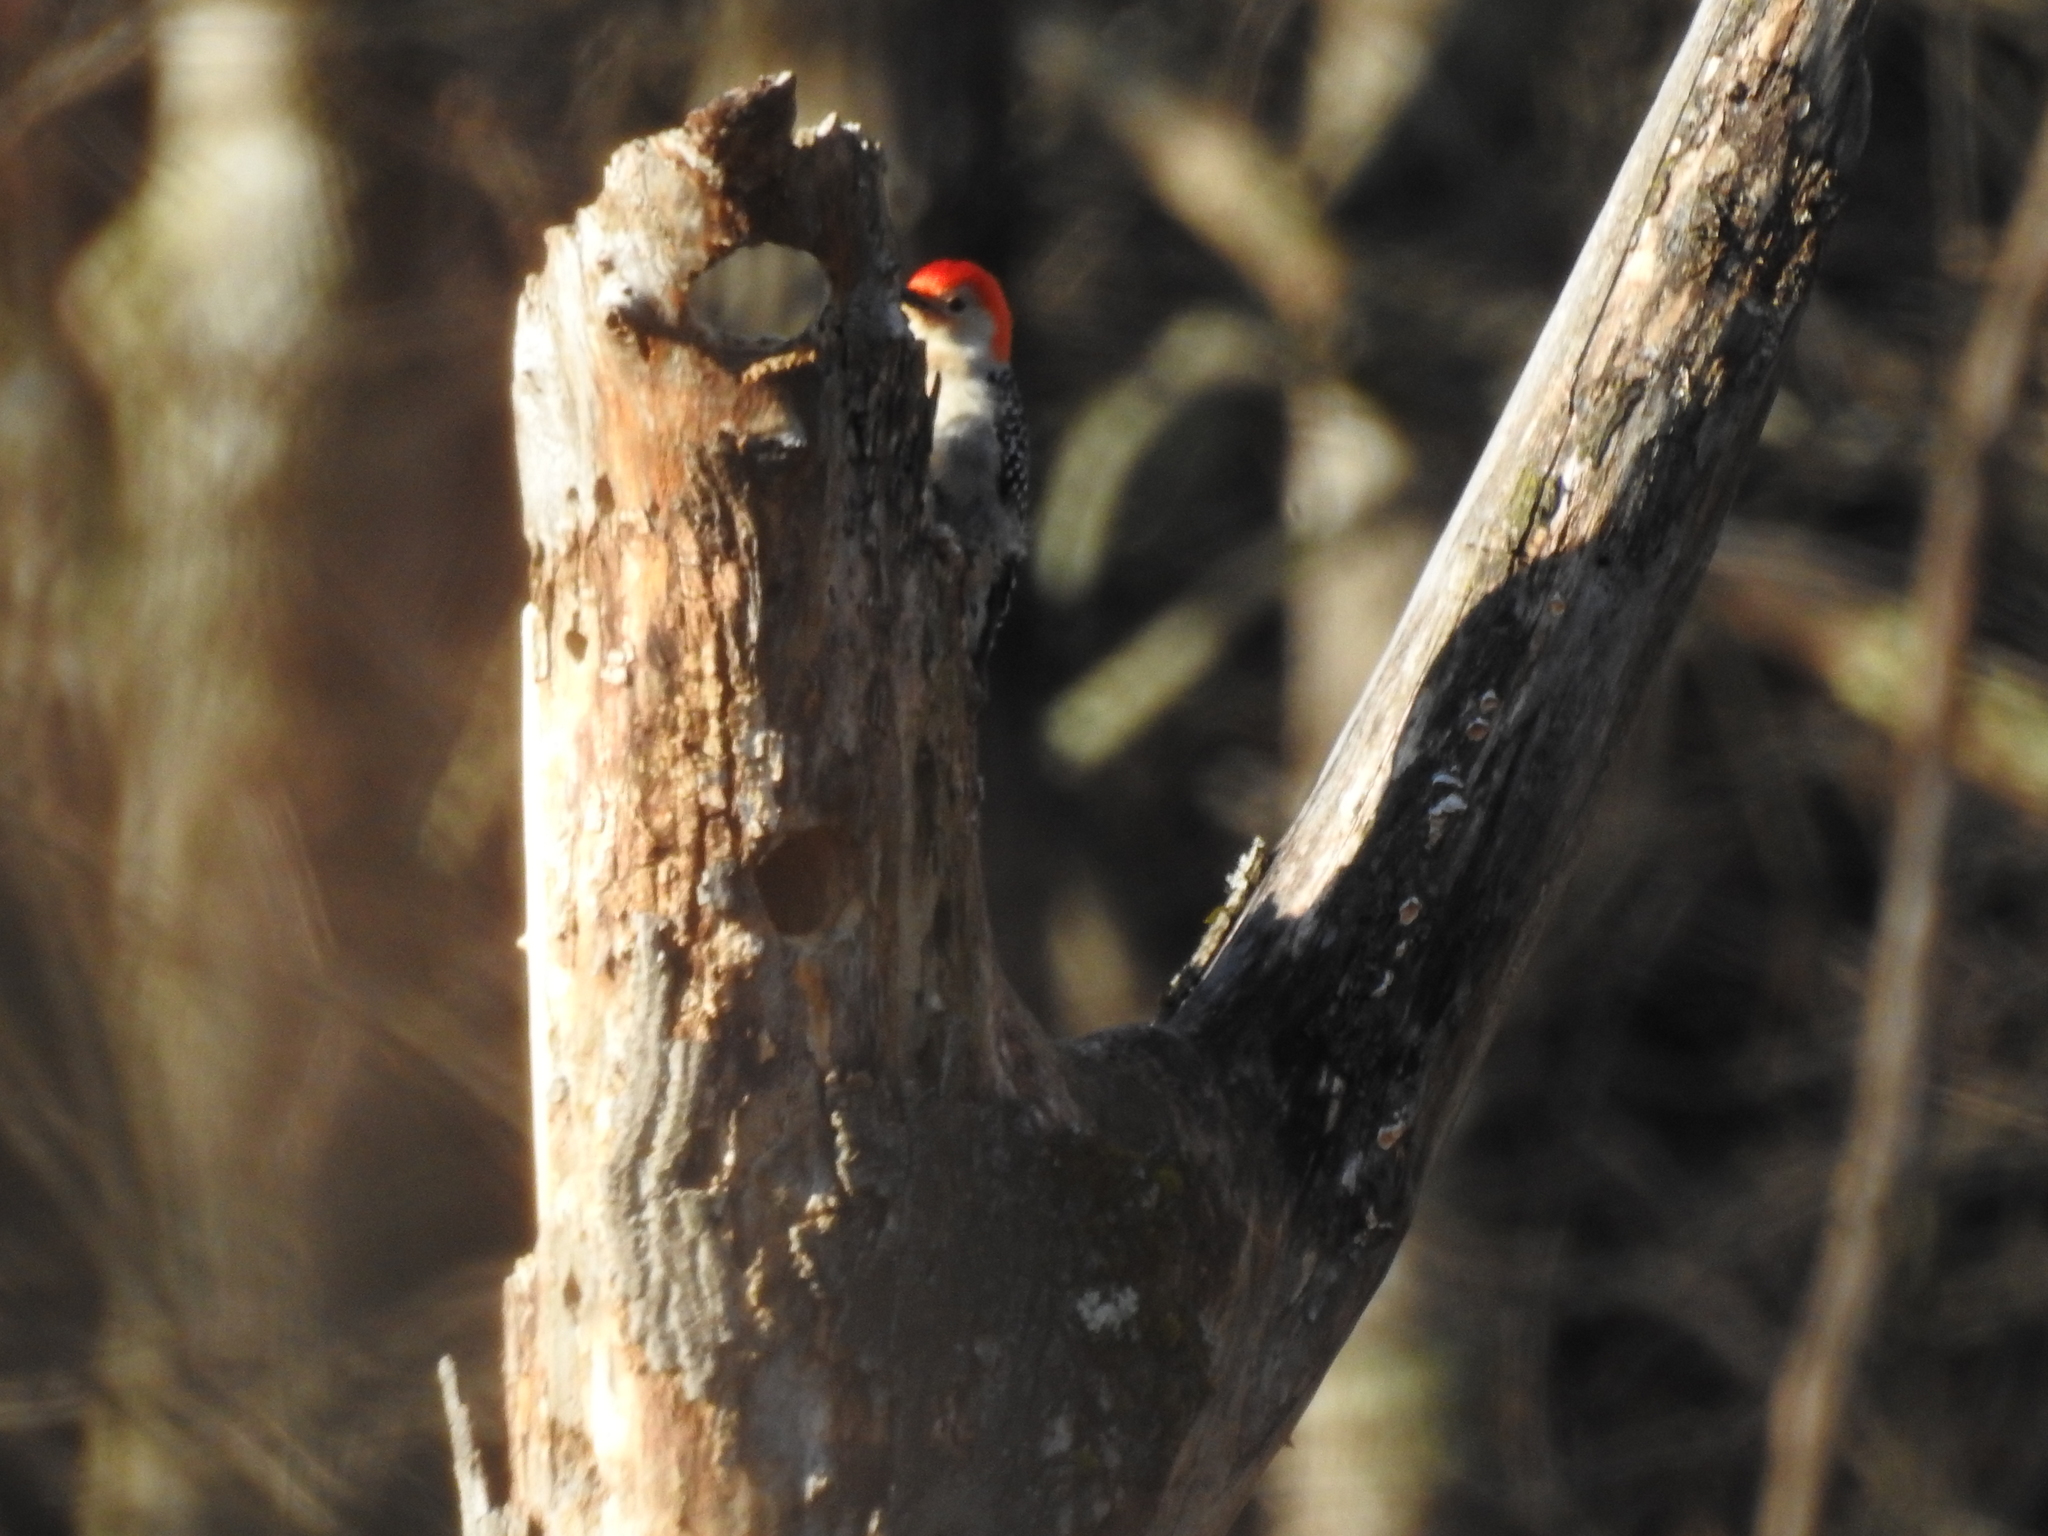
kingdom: Animalia
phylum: Chordata
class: Aves
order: Piciformes
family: Picidae
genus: Melanerpes
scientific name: Melanerpes carolinus
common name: Red-bellied woodpecker
